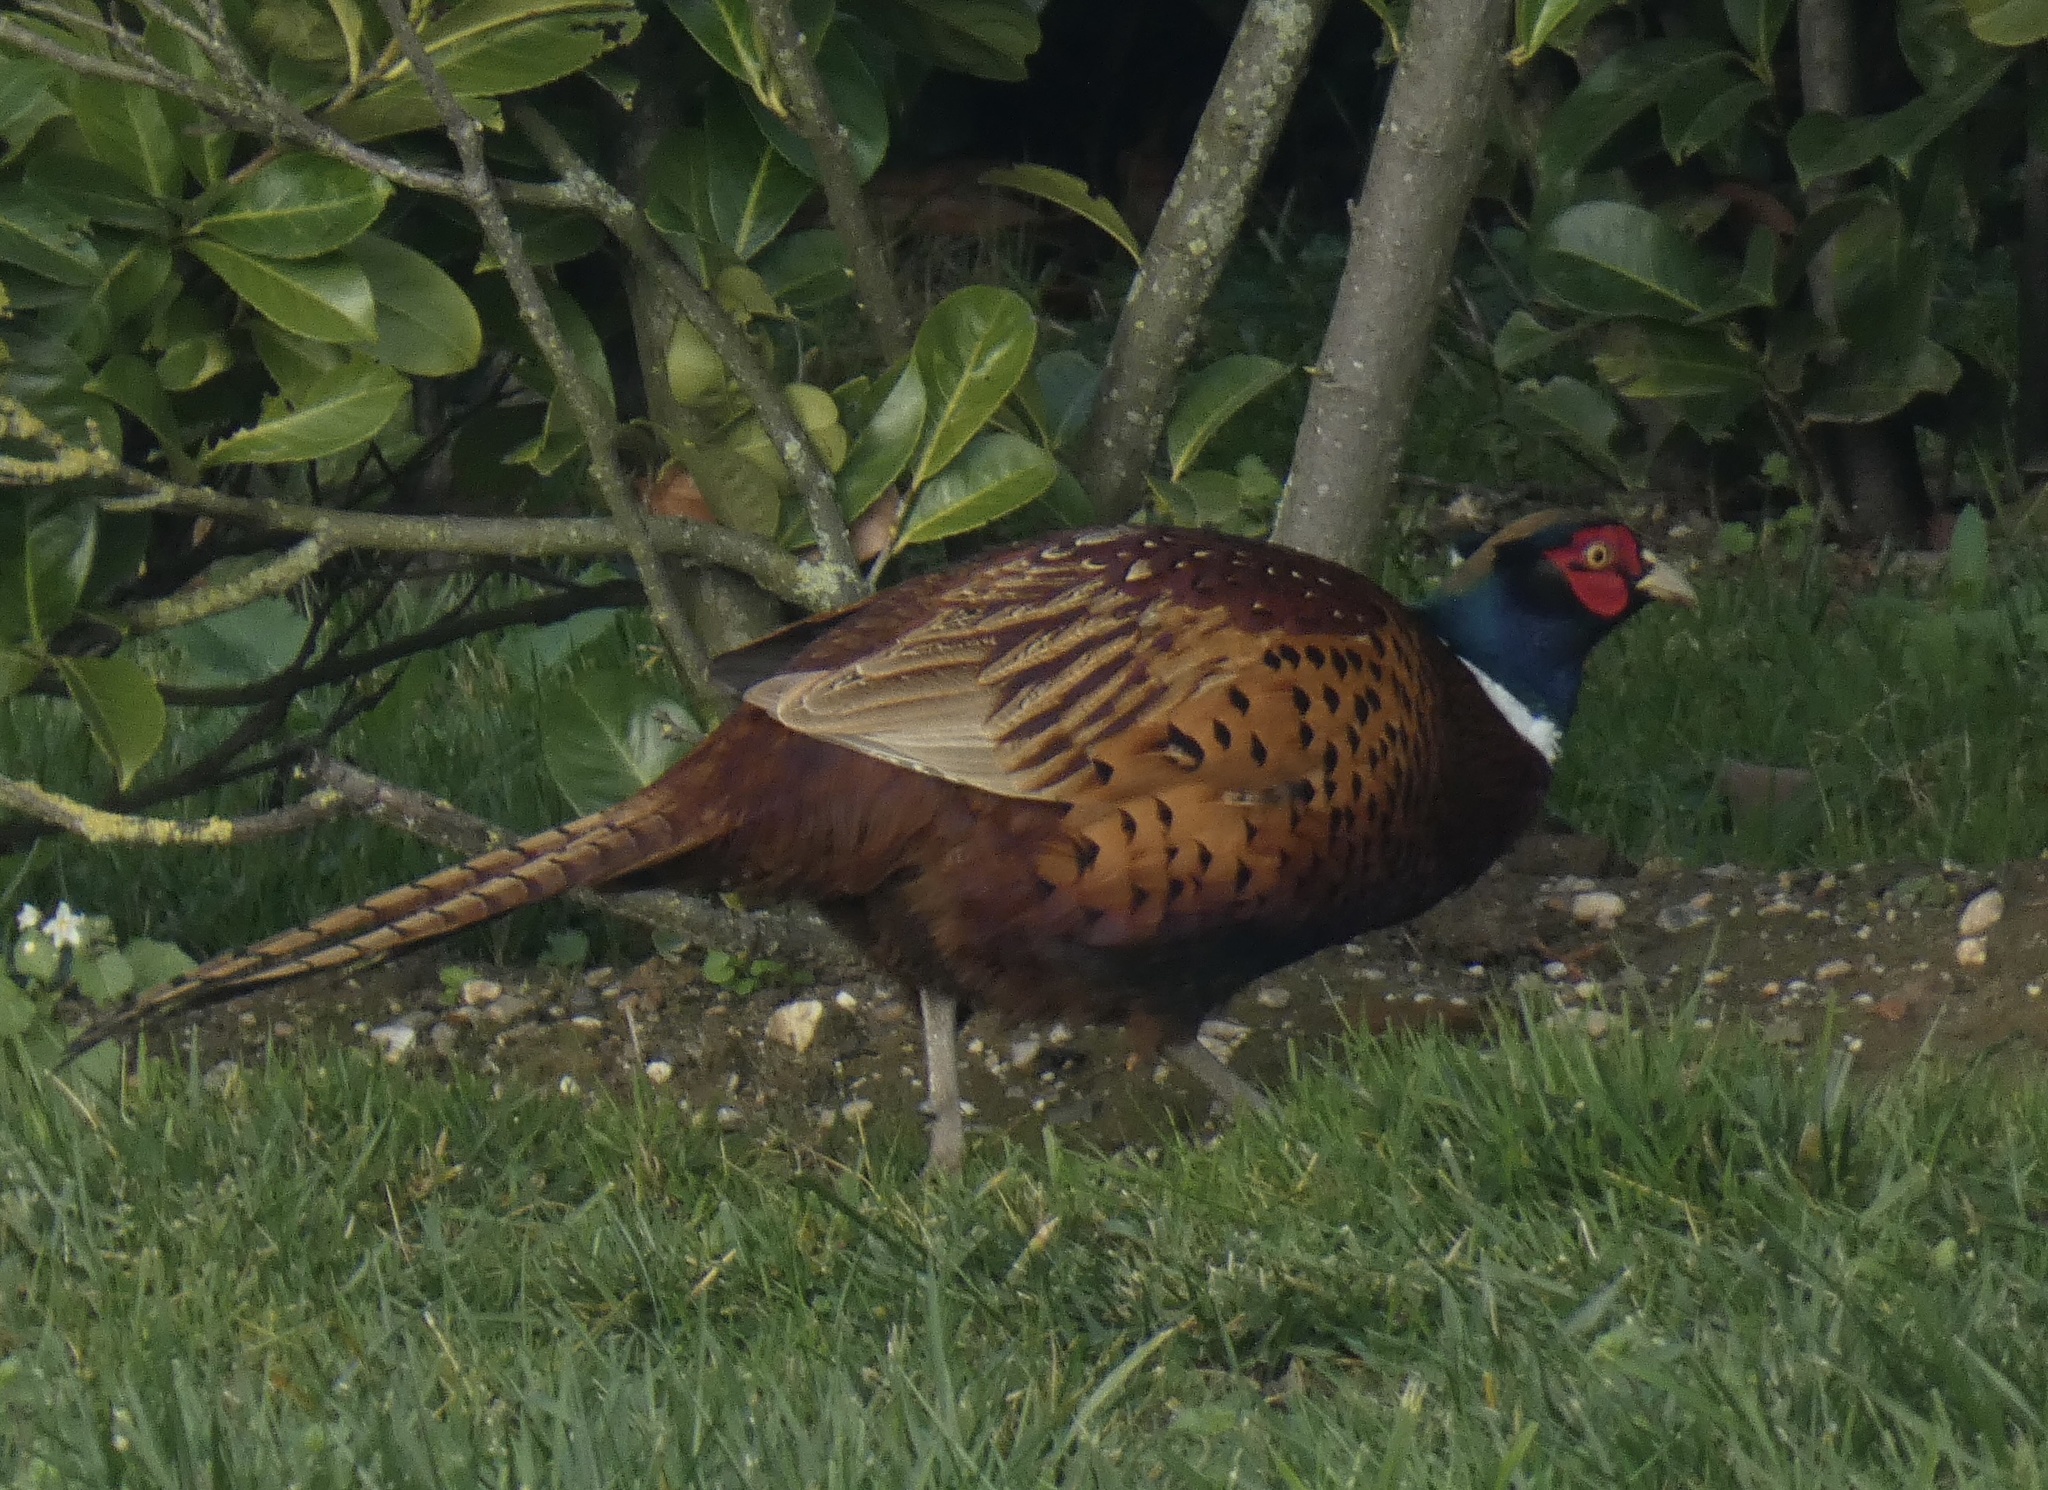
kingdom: Animalia
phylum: Chordata
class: Aves
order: Galliformes
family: Phasianidae
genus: Phasianus
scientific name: Phasianus colchicus
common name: Common pheasant
